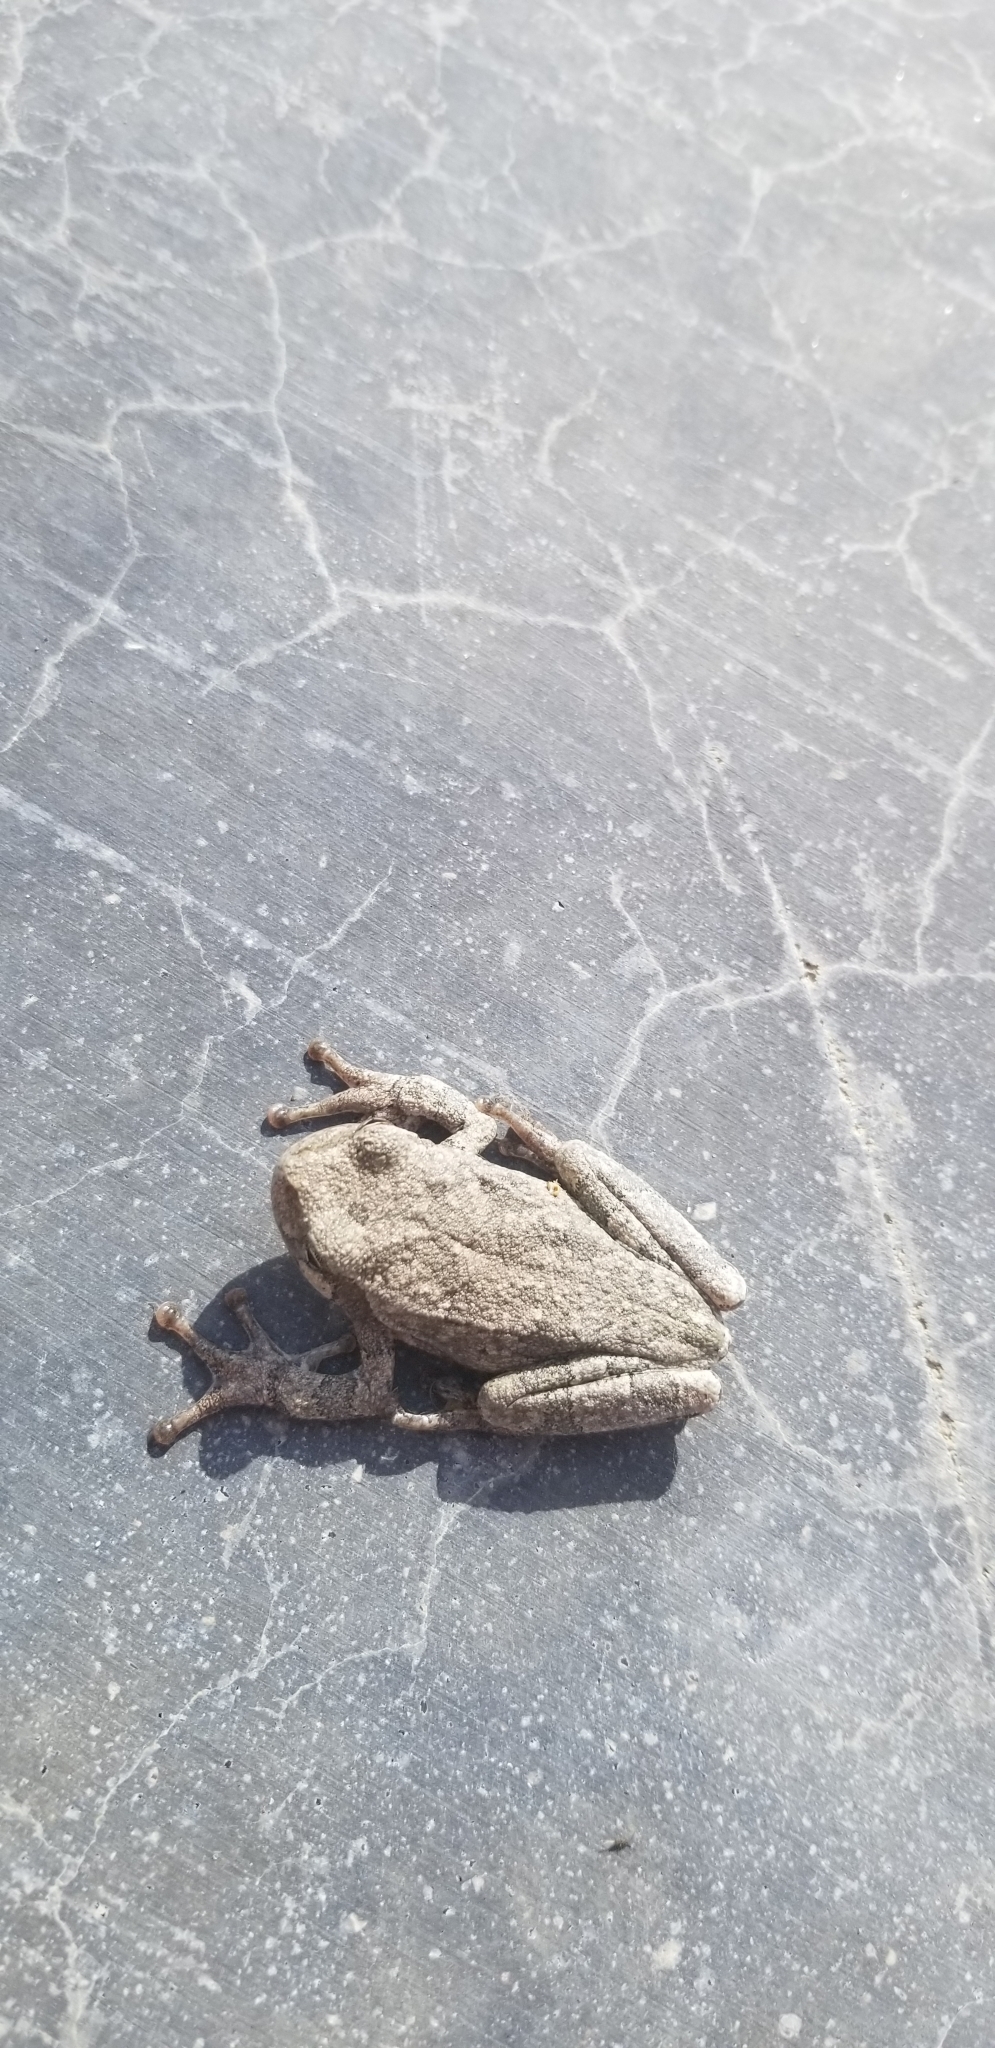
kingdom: Animalia
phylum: Chordata
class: Amphibia
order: Anura
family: Hylidae
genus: Hyla
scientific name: Hyla
